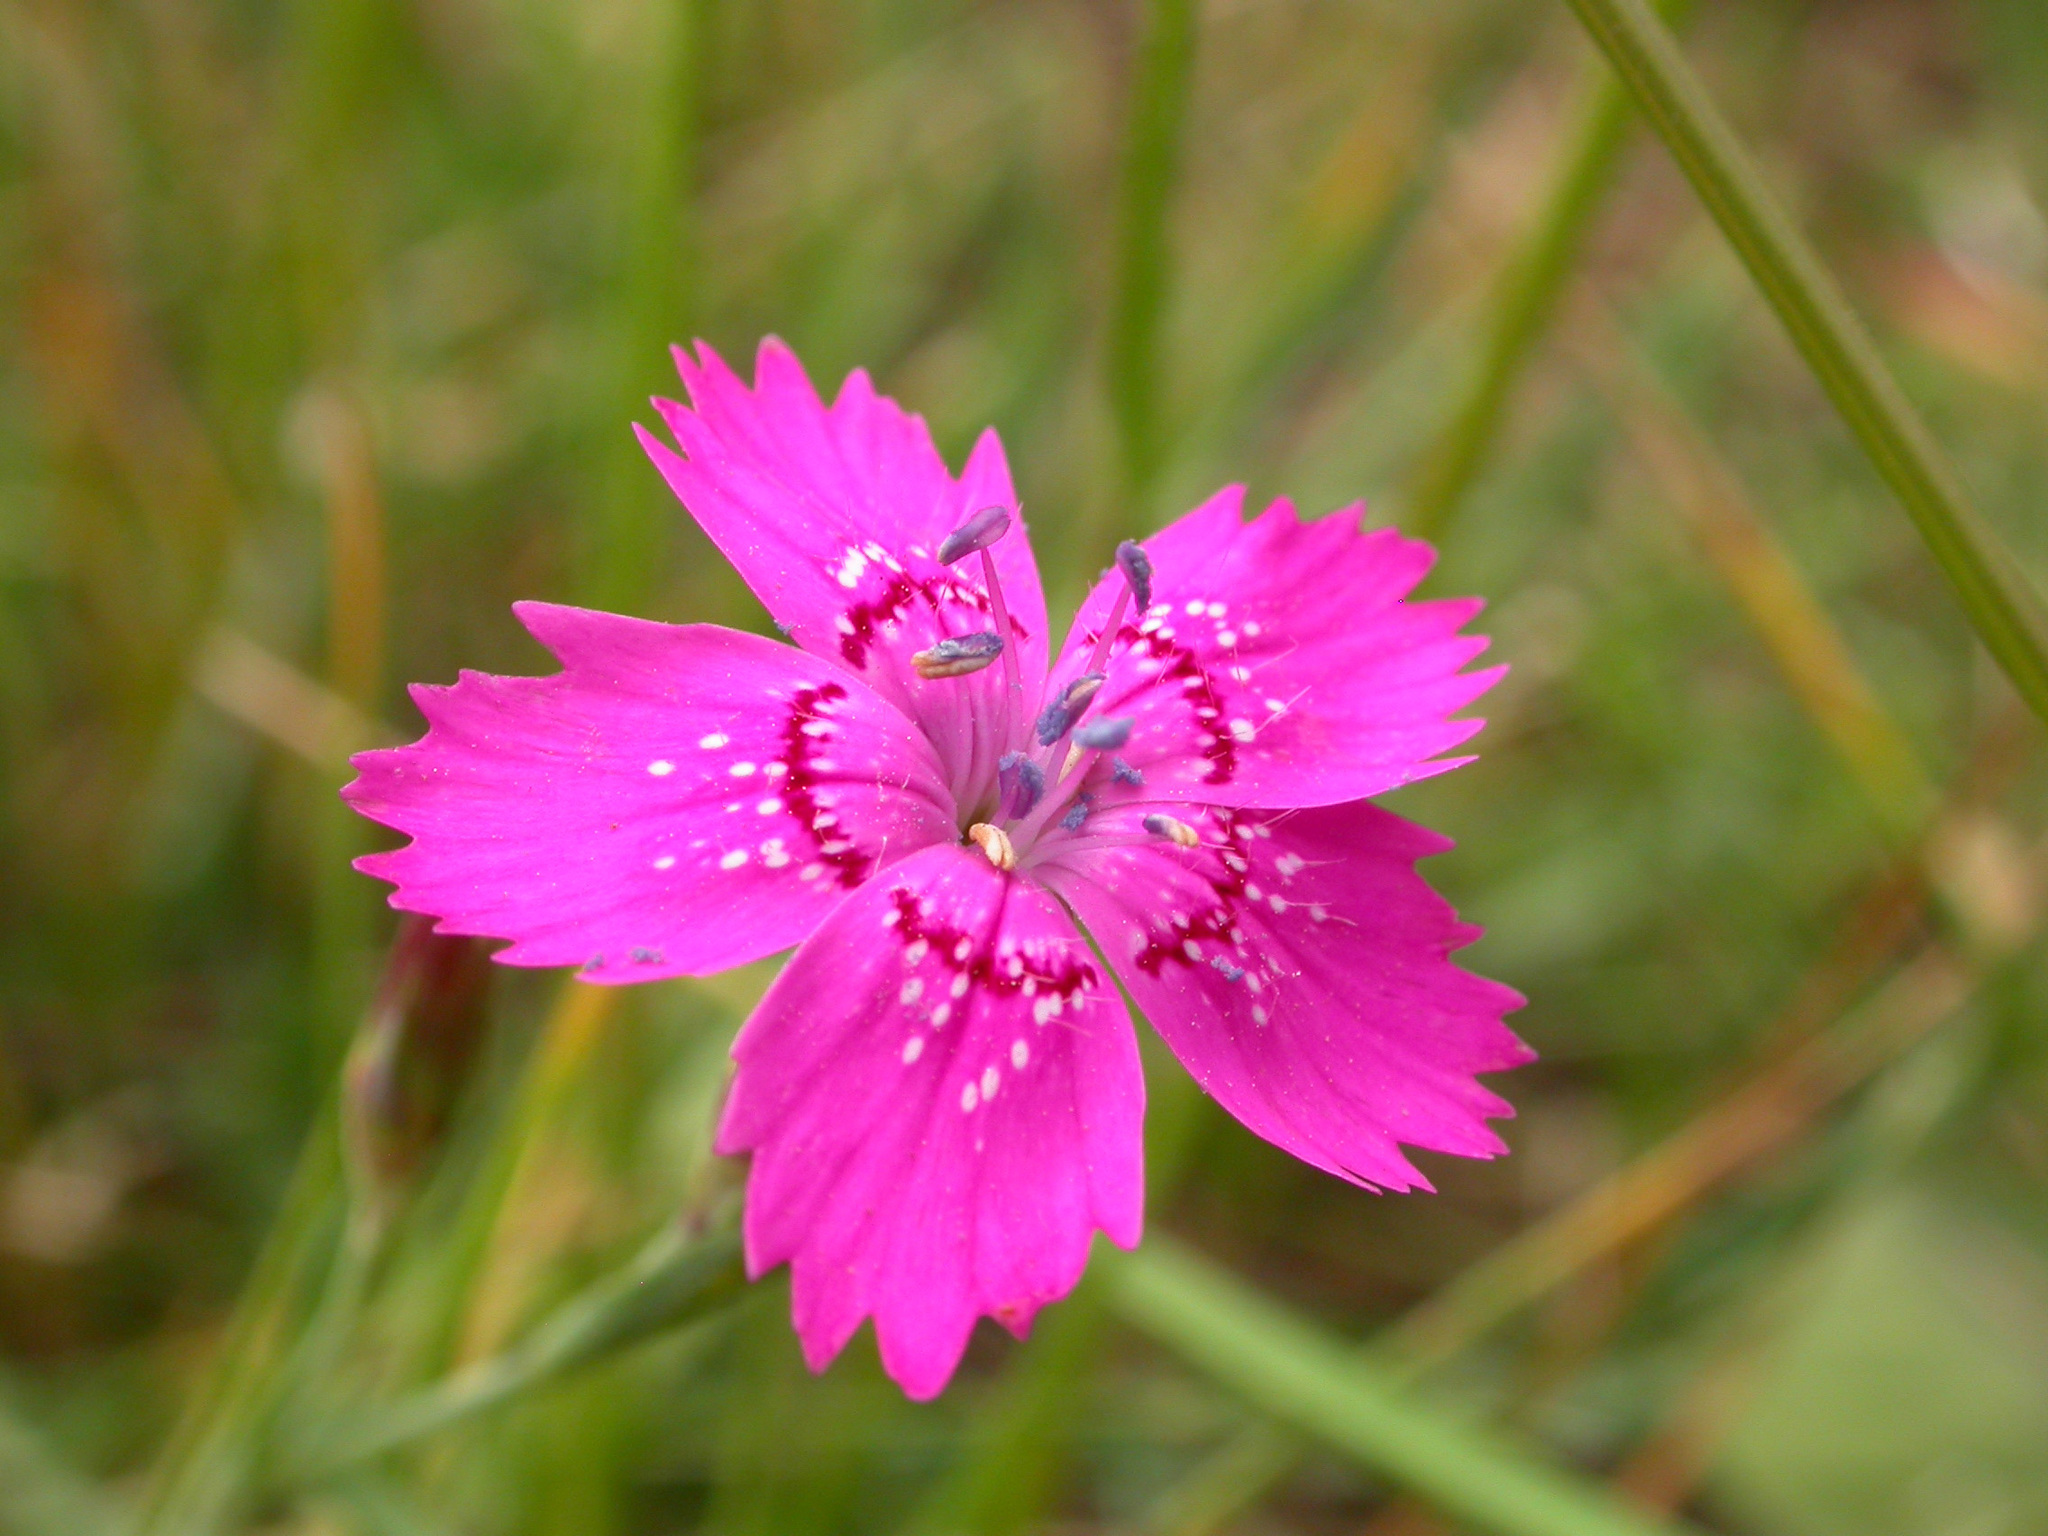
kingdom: Plantae
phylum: Tracheophyta
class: Magnoliopsida
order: Caryophyllales
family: Caryophyllaceae
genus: Dianthus
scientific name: Dianthus deltoides
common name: Maiden pink
